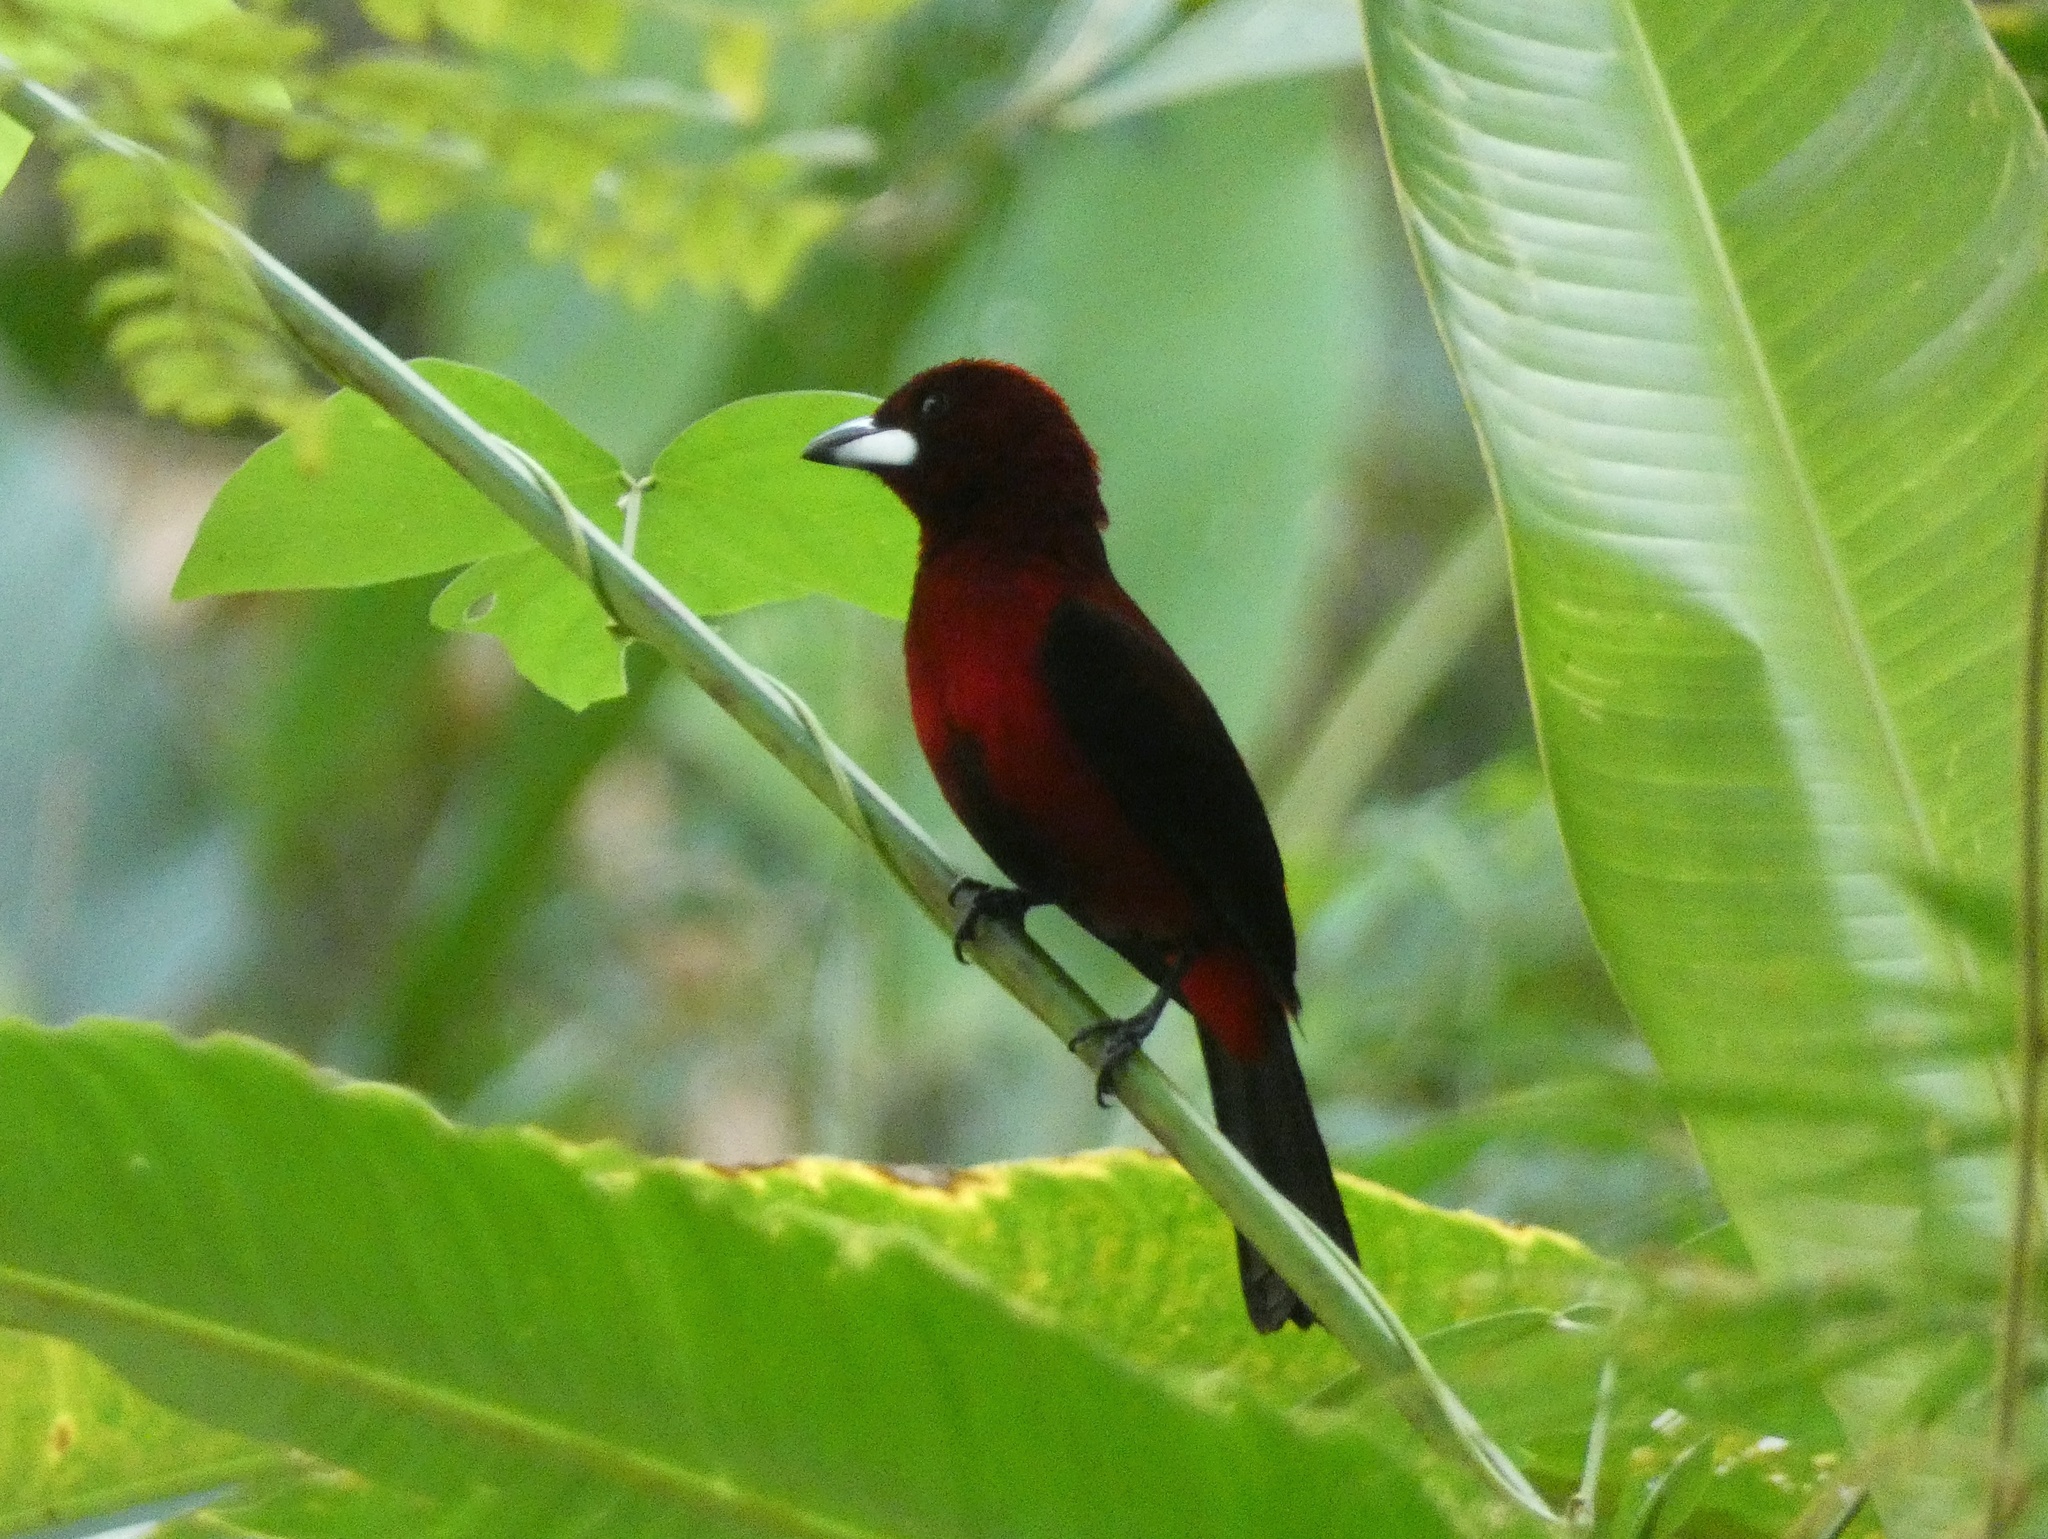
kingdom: Animalia
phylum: Chordata
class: Aves
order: Passeriformes
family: Thraupidae
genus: Ramphocelus
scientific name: Ramphocelus dimidiatus
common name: Crimson-backed tanager
